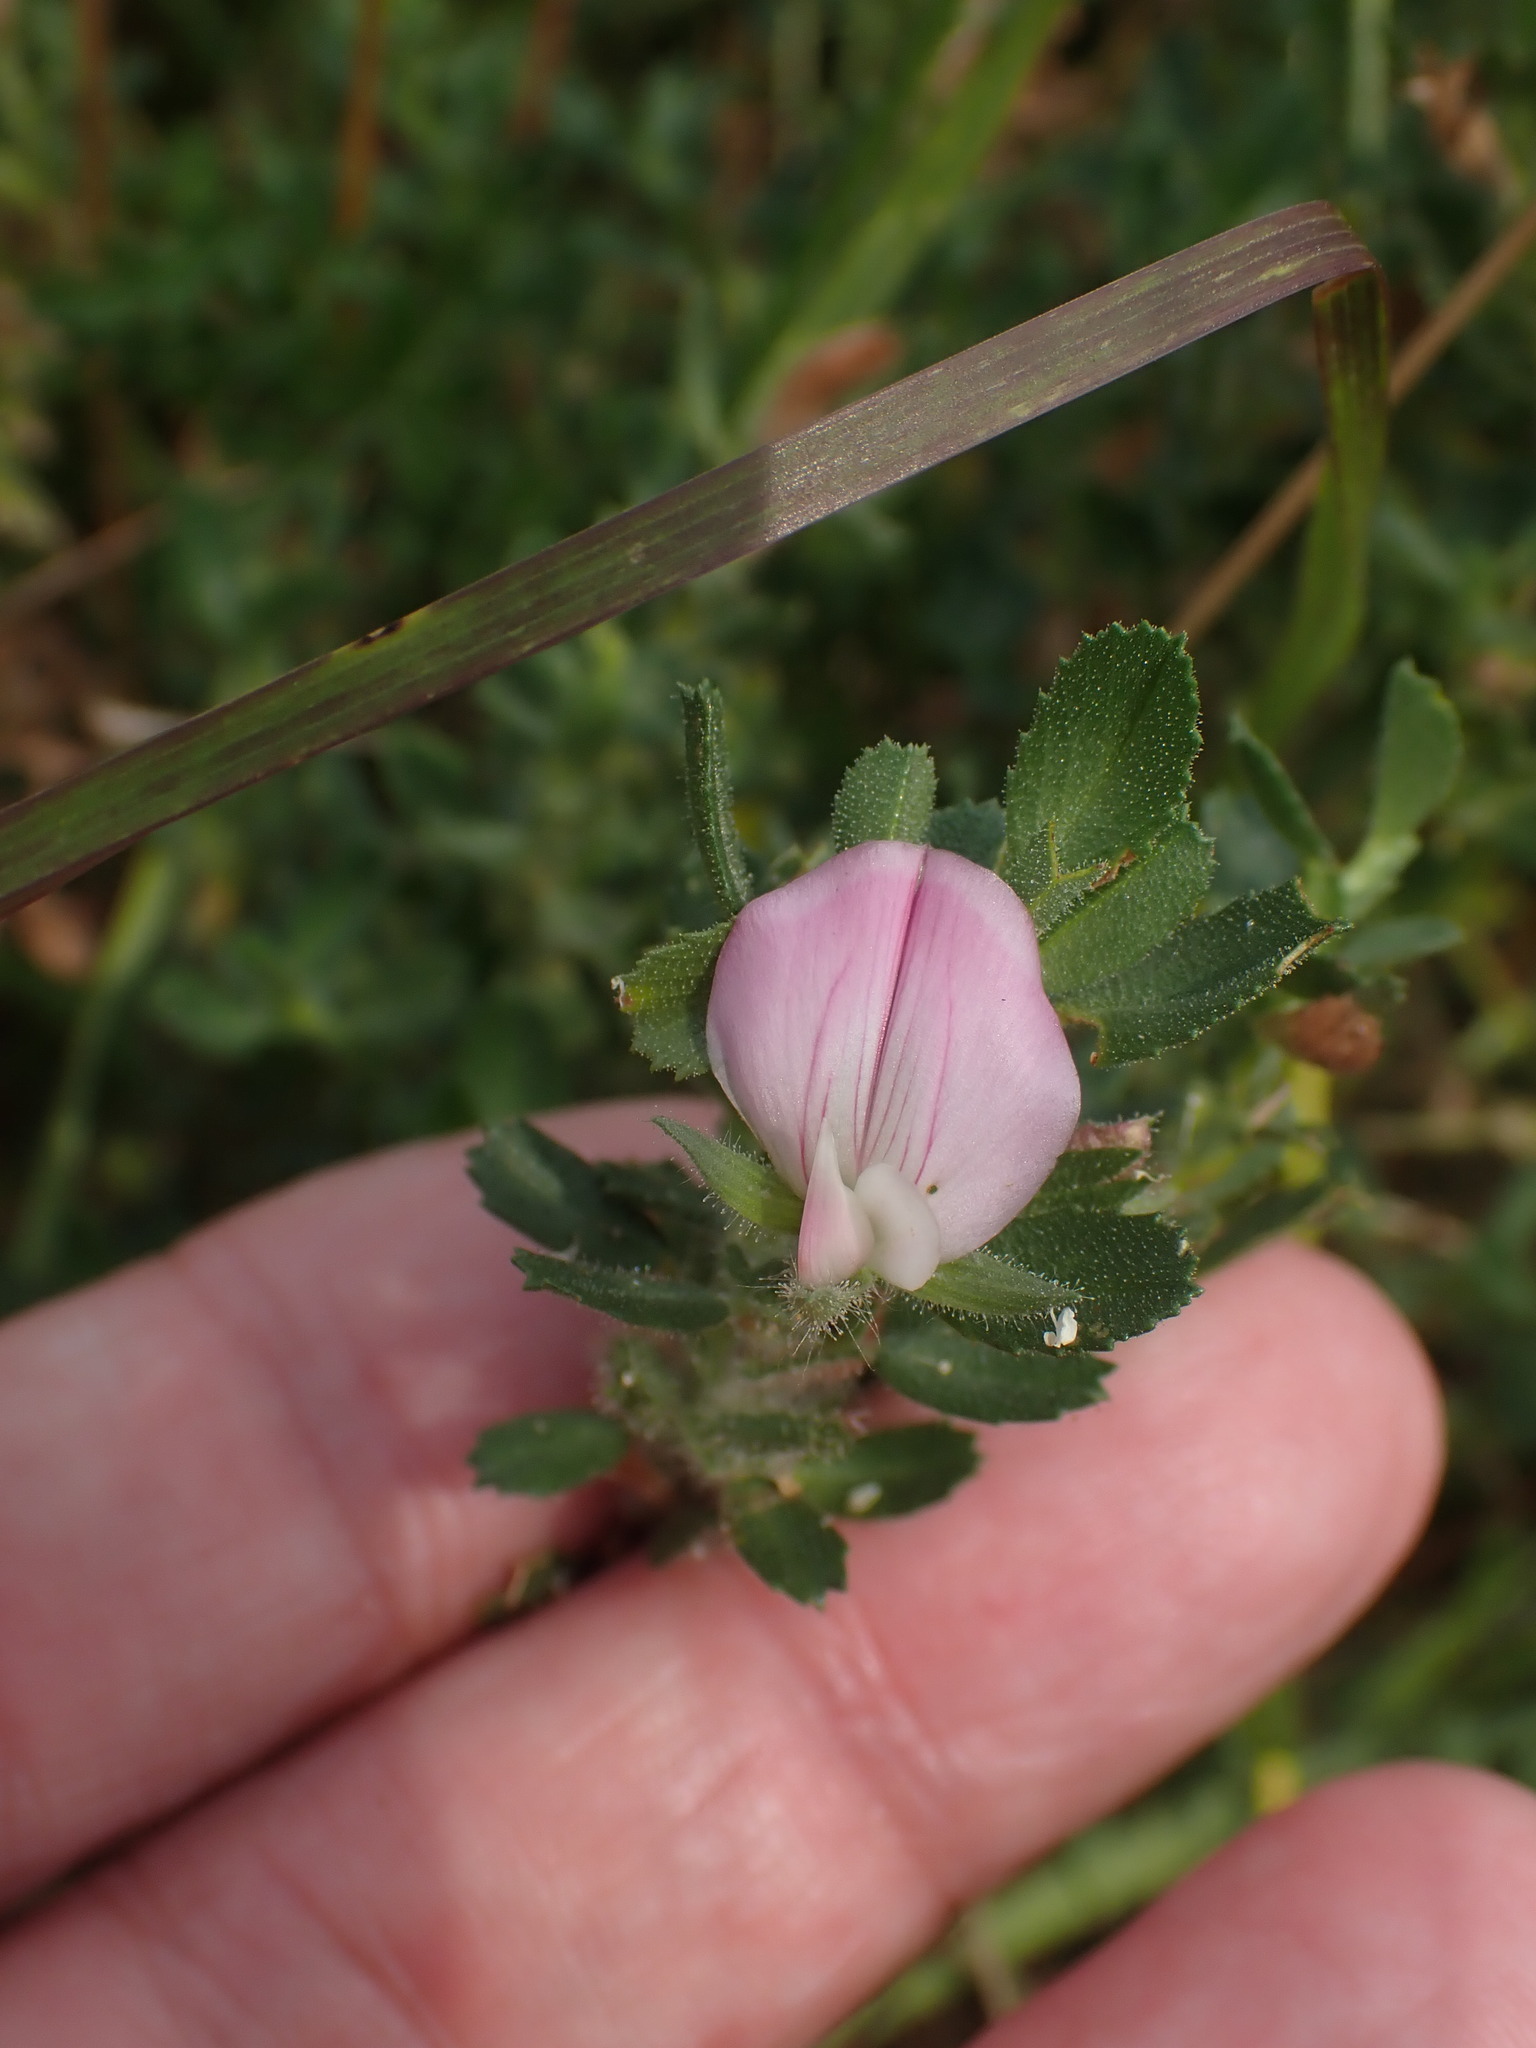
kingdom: Plantae
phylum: Tracheophyta
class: Magnoliopsida
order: Fabales
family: Fabaceae
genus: Ononis
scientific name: Ononis spinosa
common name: Spiny restharrow
